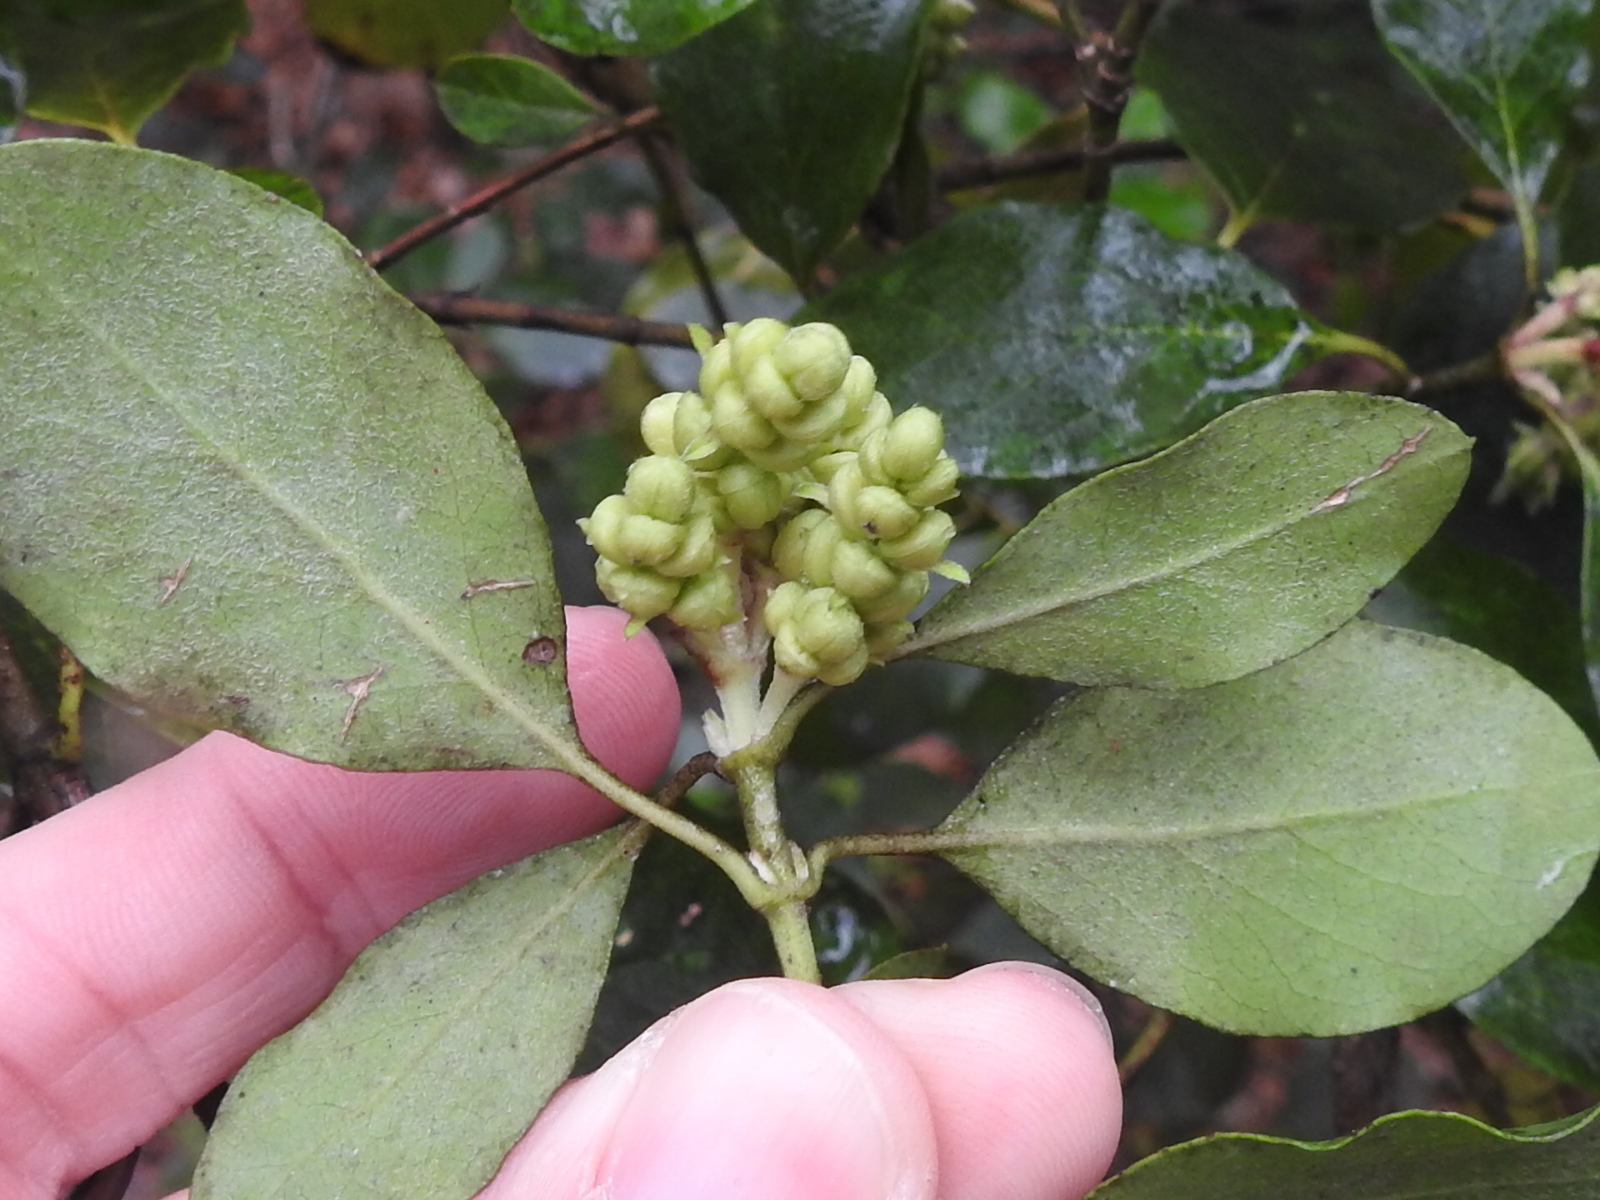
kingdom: Plantae
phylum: Tracheophyta
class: Magnoliopsida
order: Garryales
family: Garryaceae
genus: Garrya
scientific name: Garrya lindheimeri
